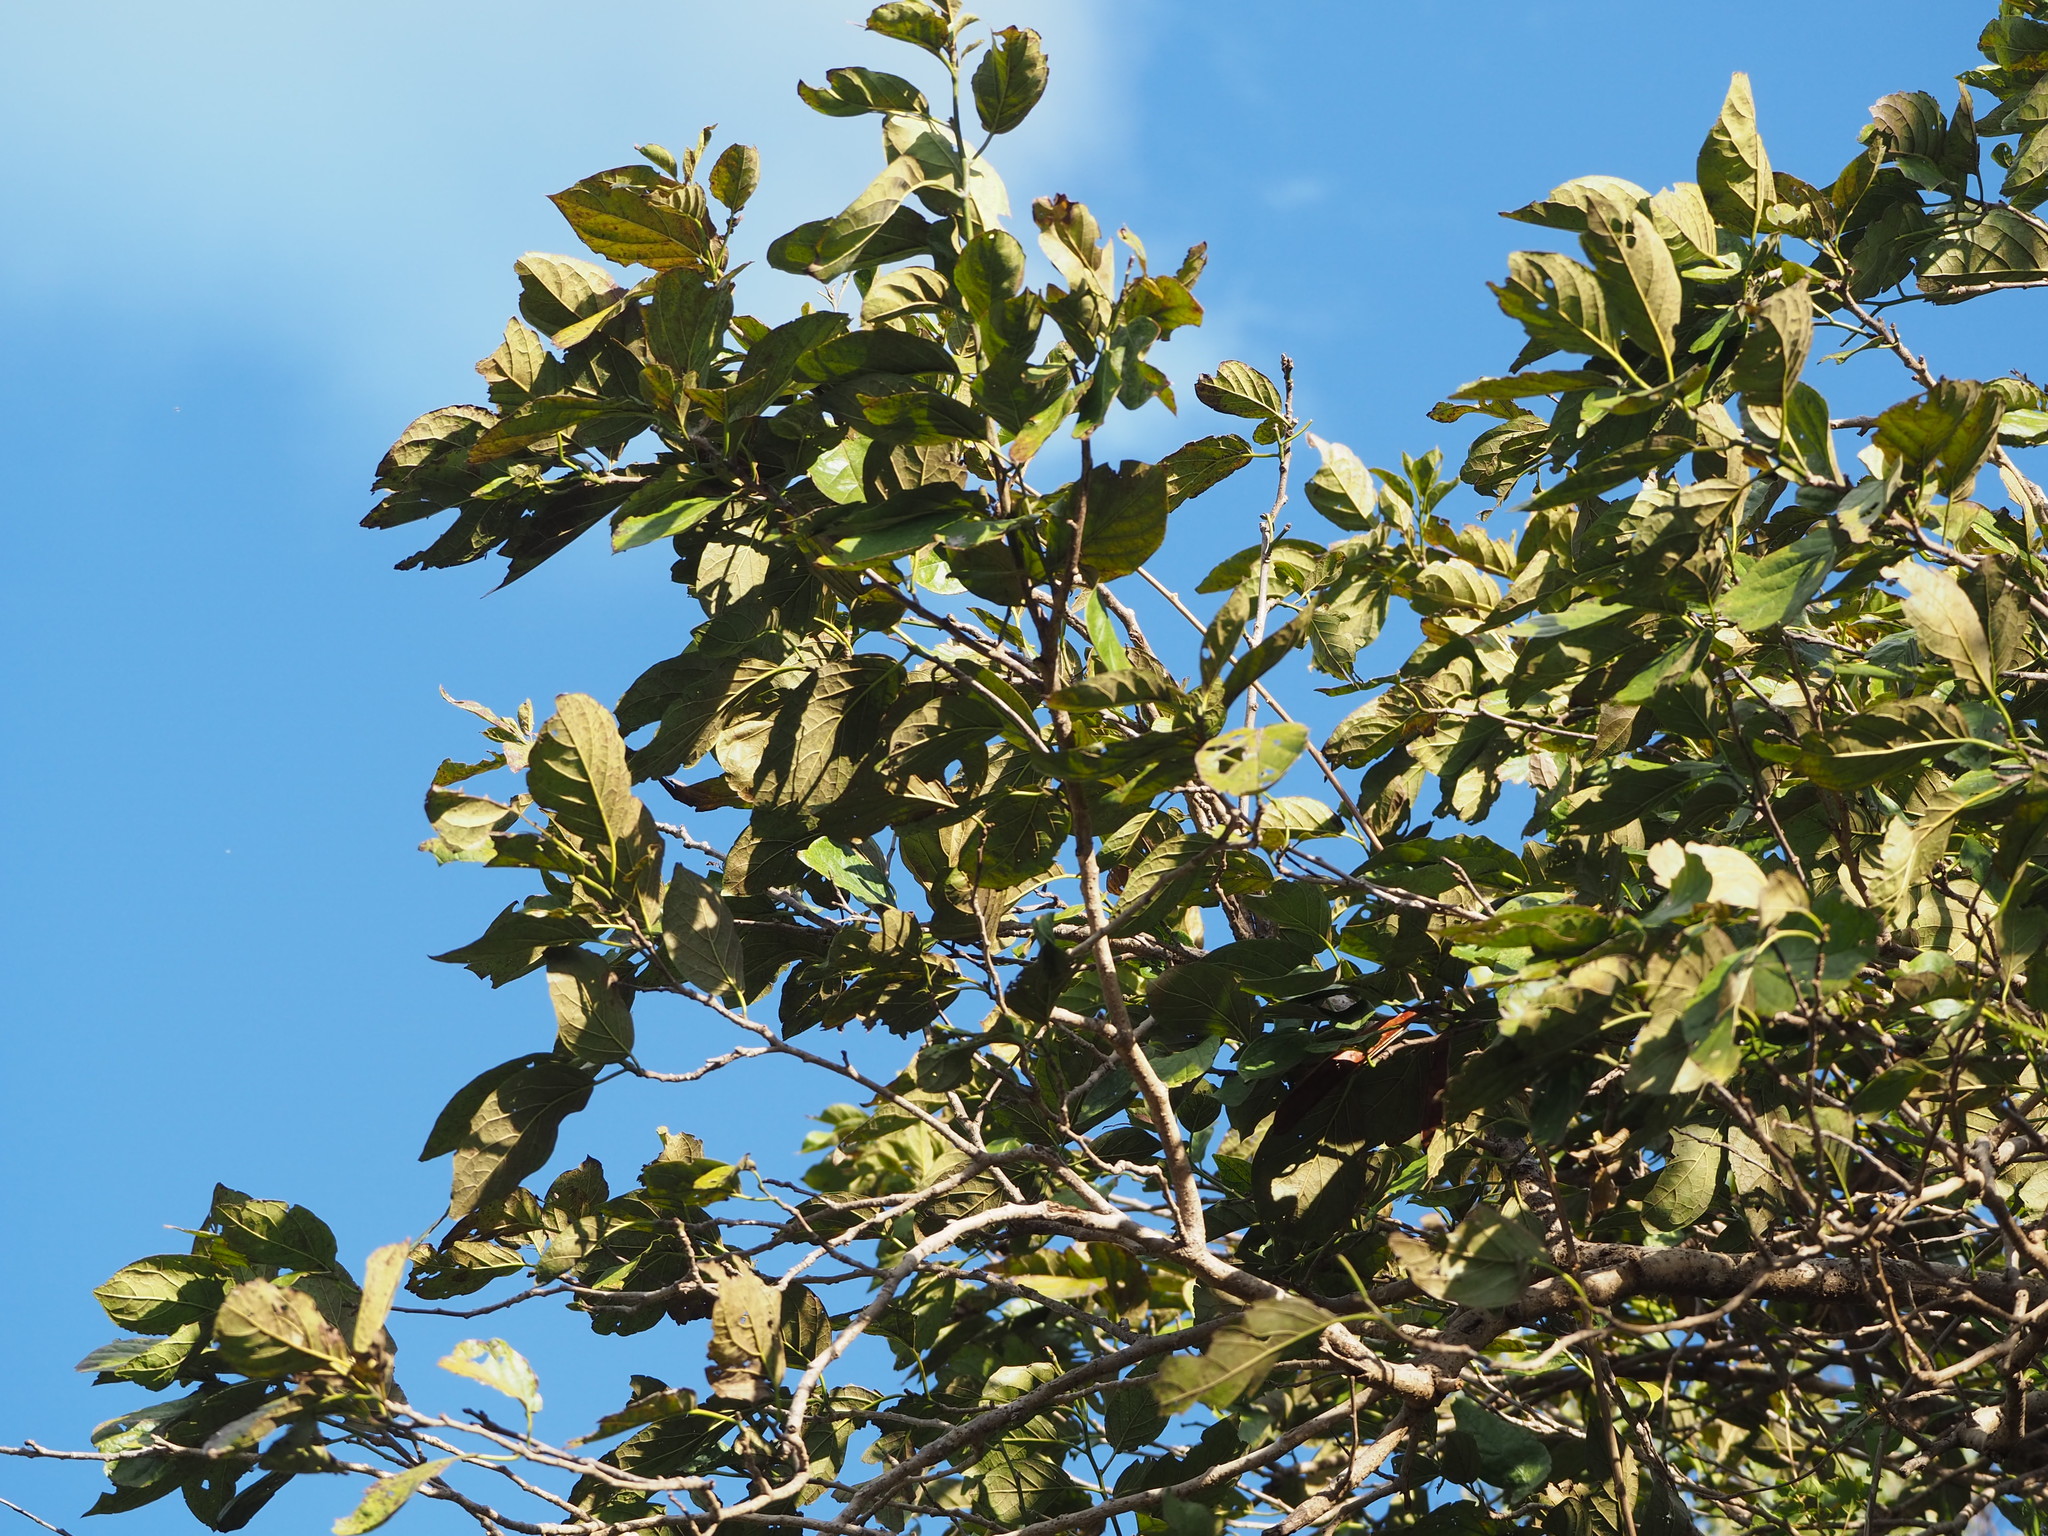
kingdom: Plantae
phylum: Tracheophyta
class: Magnoliopsida
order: Boraginales
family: Ehretiaceae
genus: Ehretia
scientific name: Ehretia resinosa
